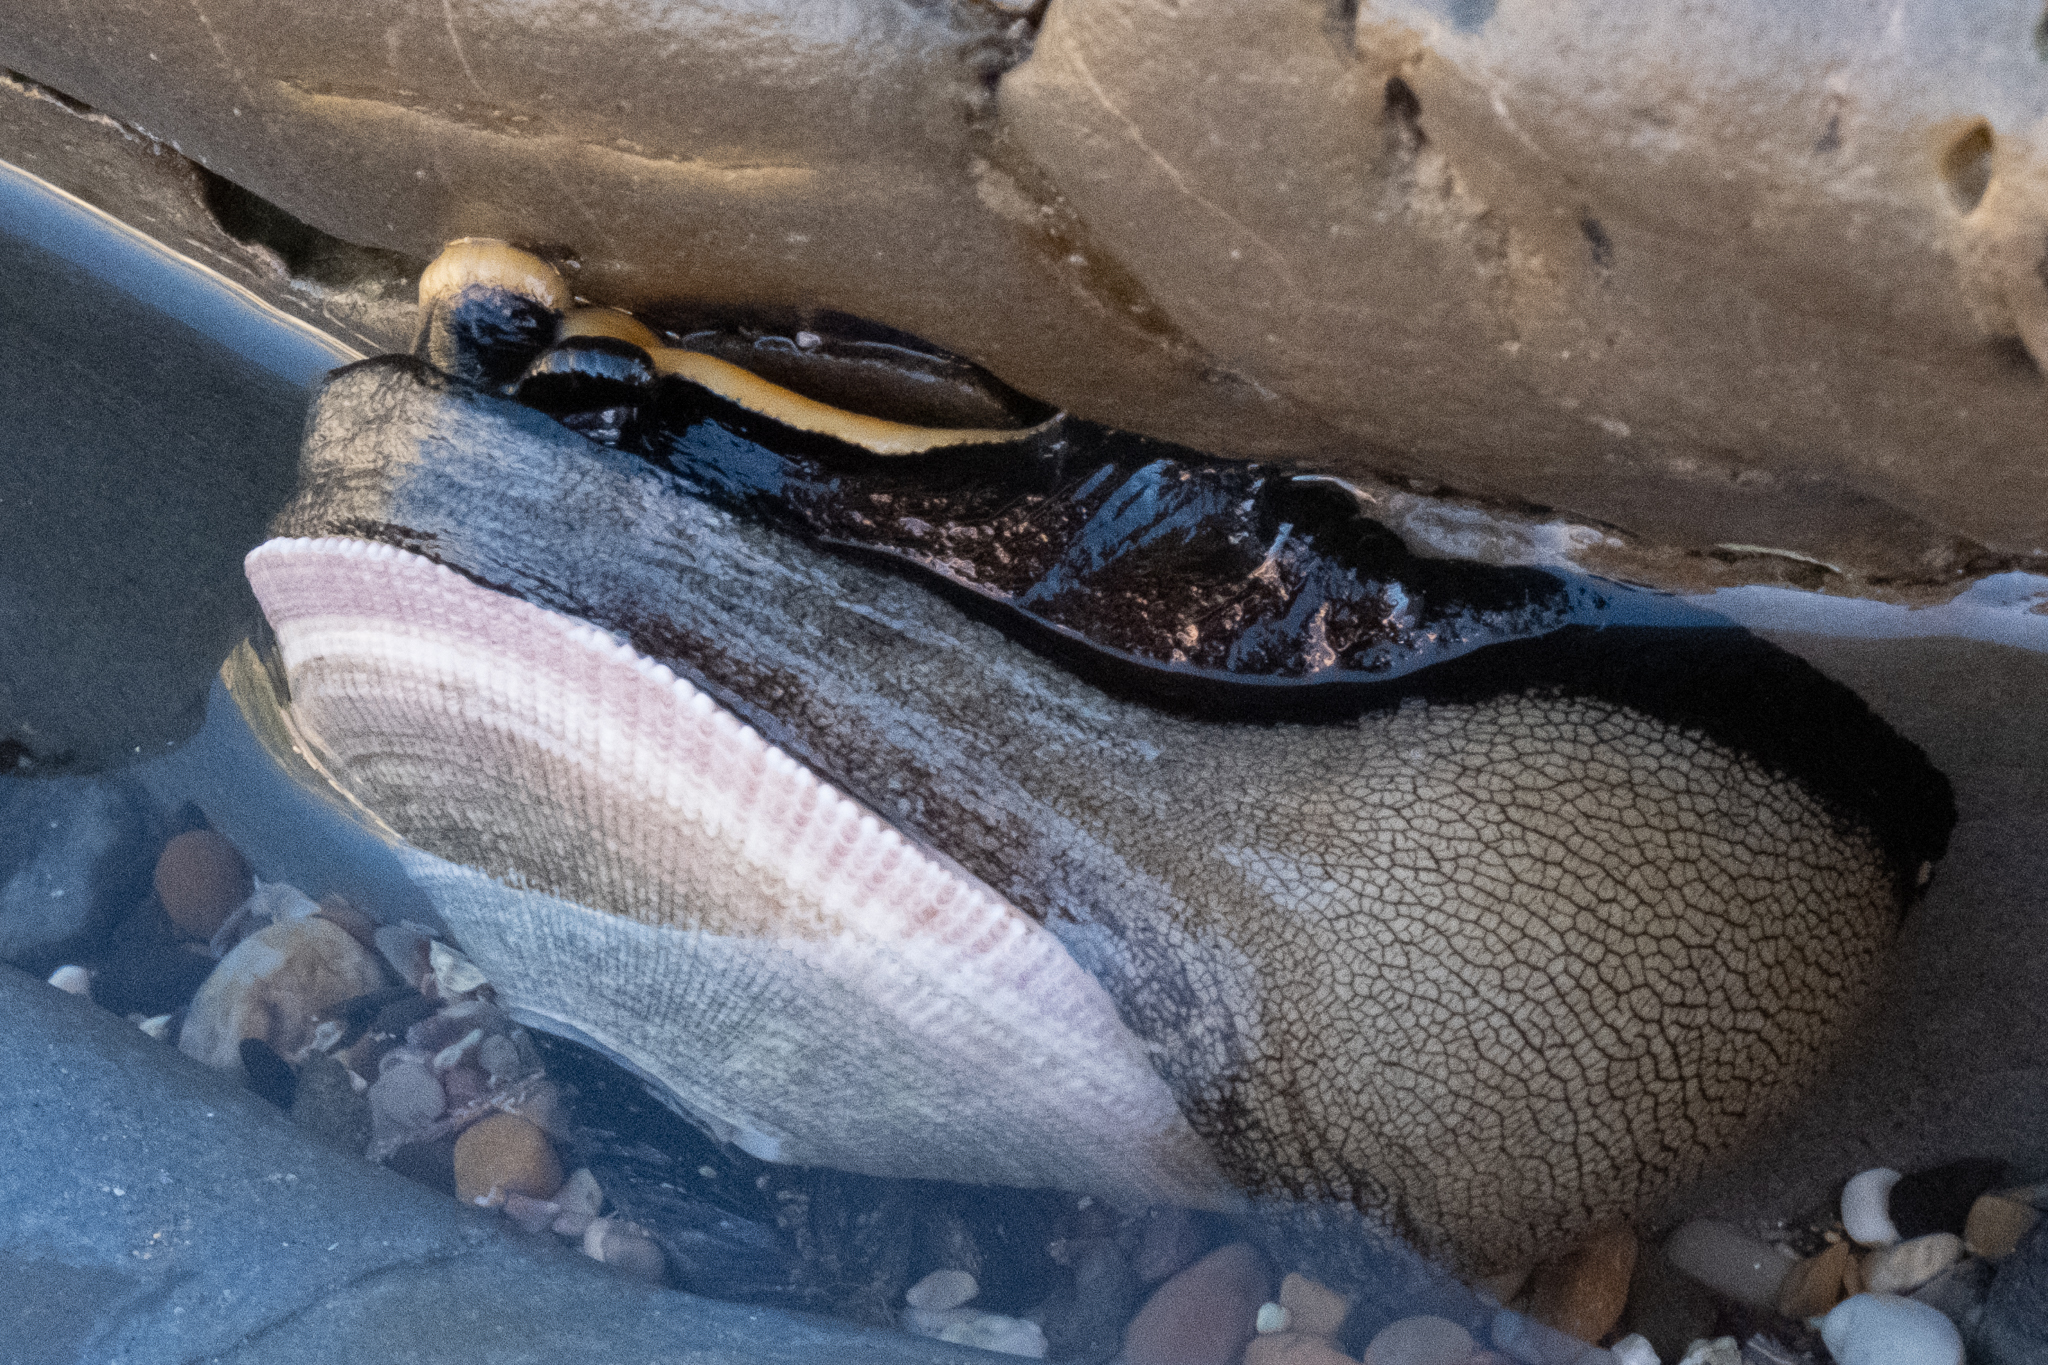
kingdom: Animalia
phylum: Mollusca
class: Gastropoda
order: Lepetellida
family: Fissurellidae
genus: Megathura
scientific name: Megathura crenulata
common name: Giant keyhole limpet
